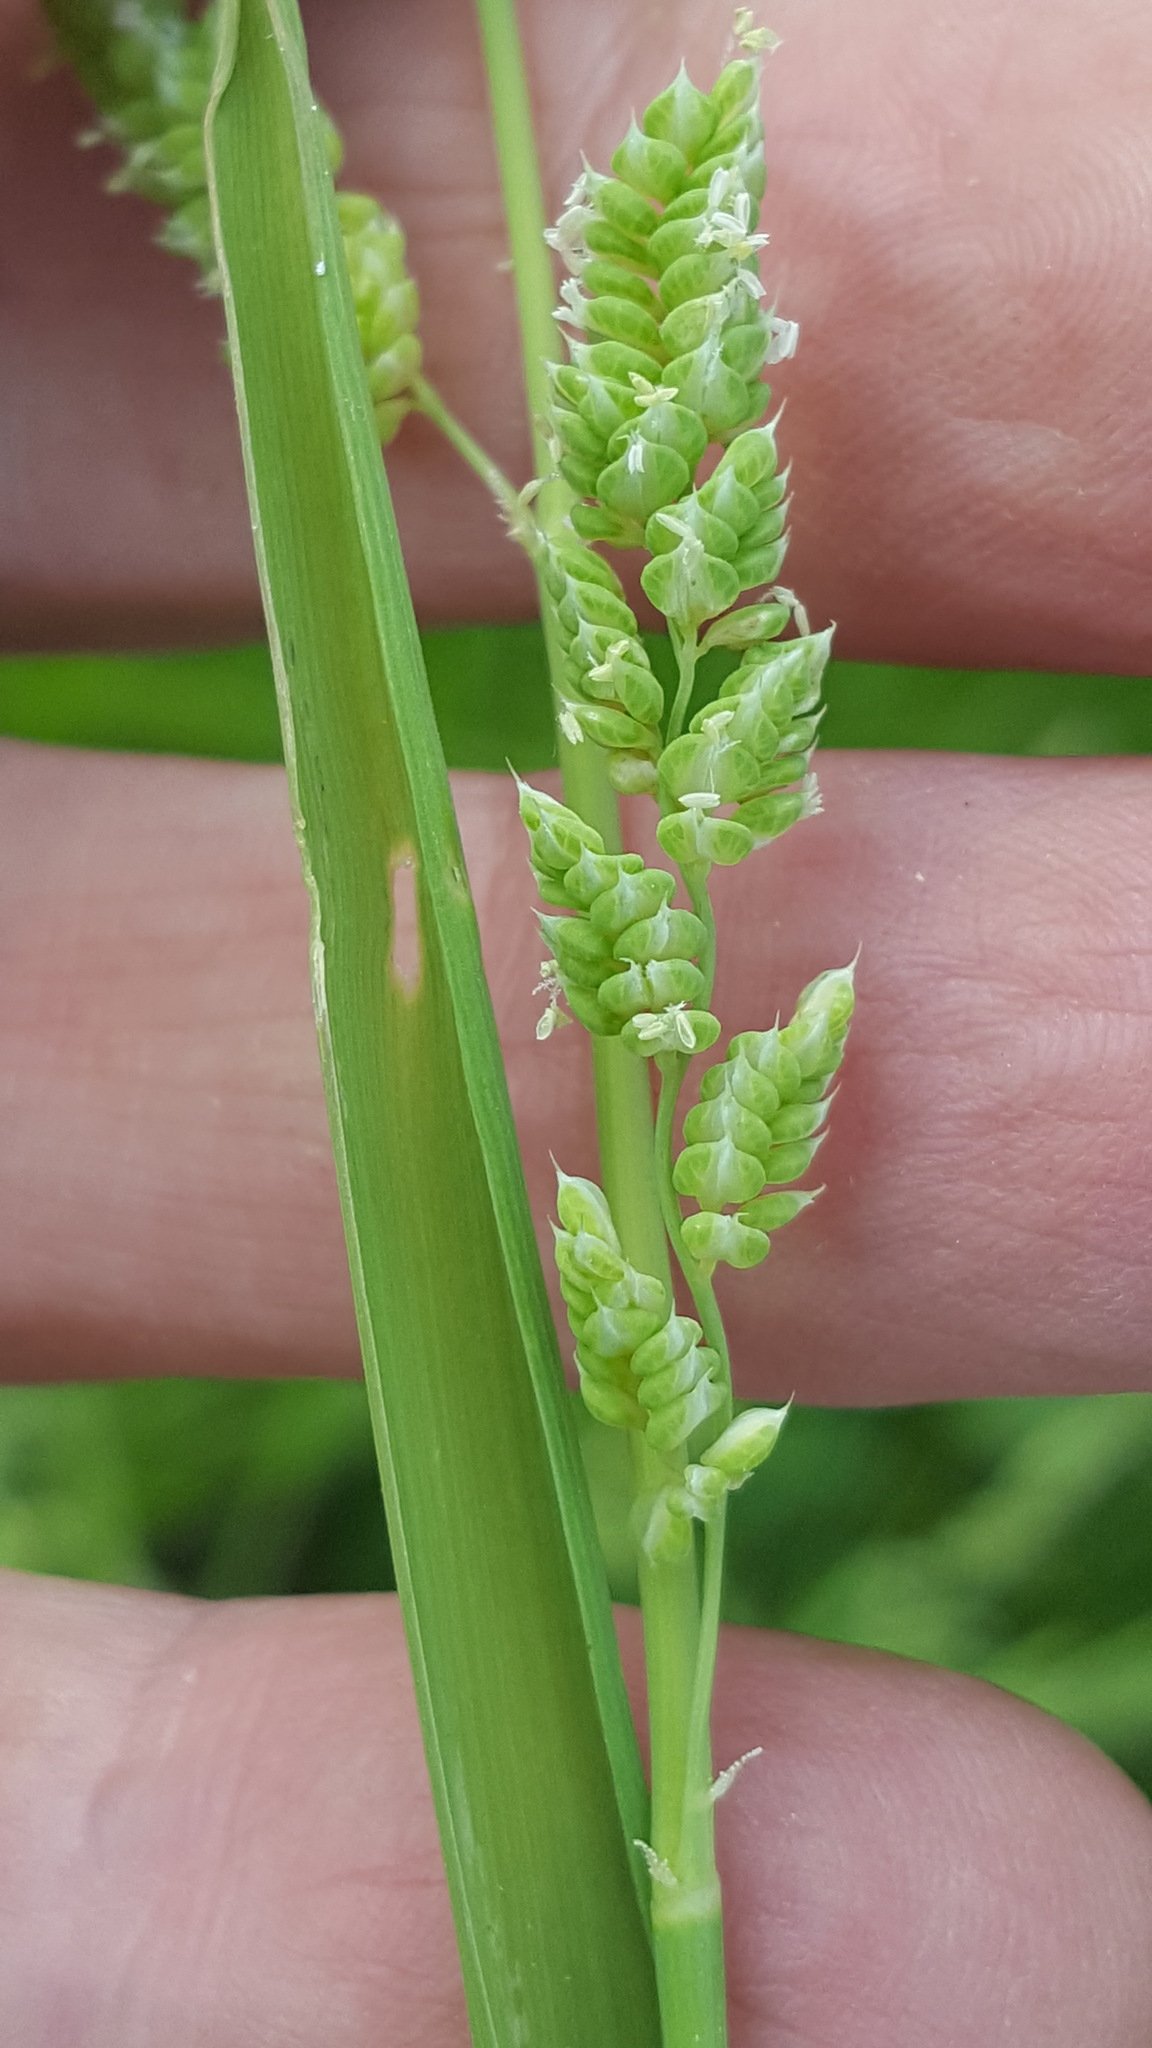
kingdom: Plantae
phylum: Tracheophyta
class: Liliopsida
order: Poales
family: Poaceae
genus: Beckmannia
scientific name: Beckmannia syzigachne
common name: American slough-grass
